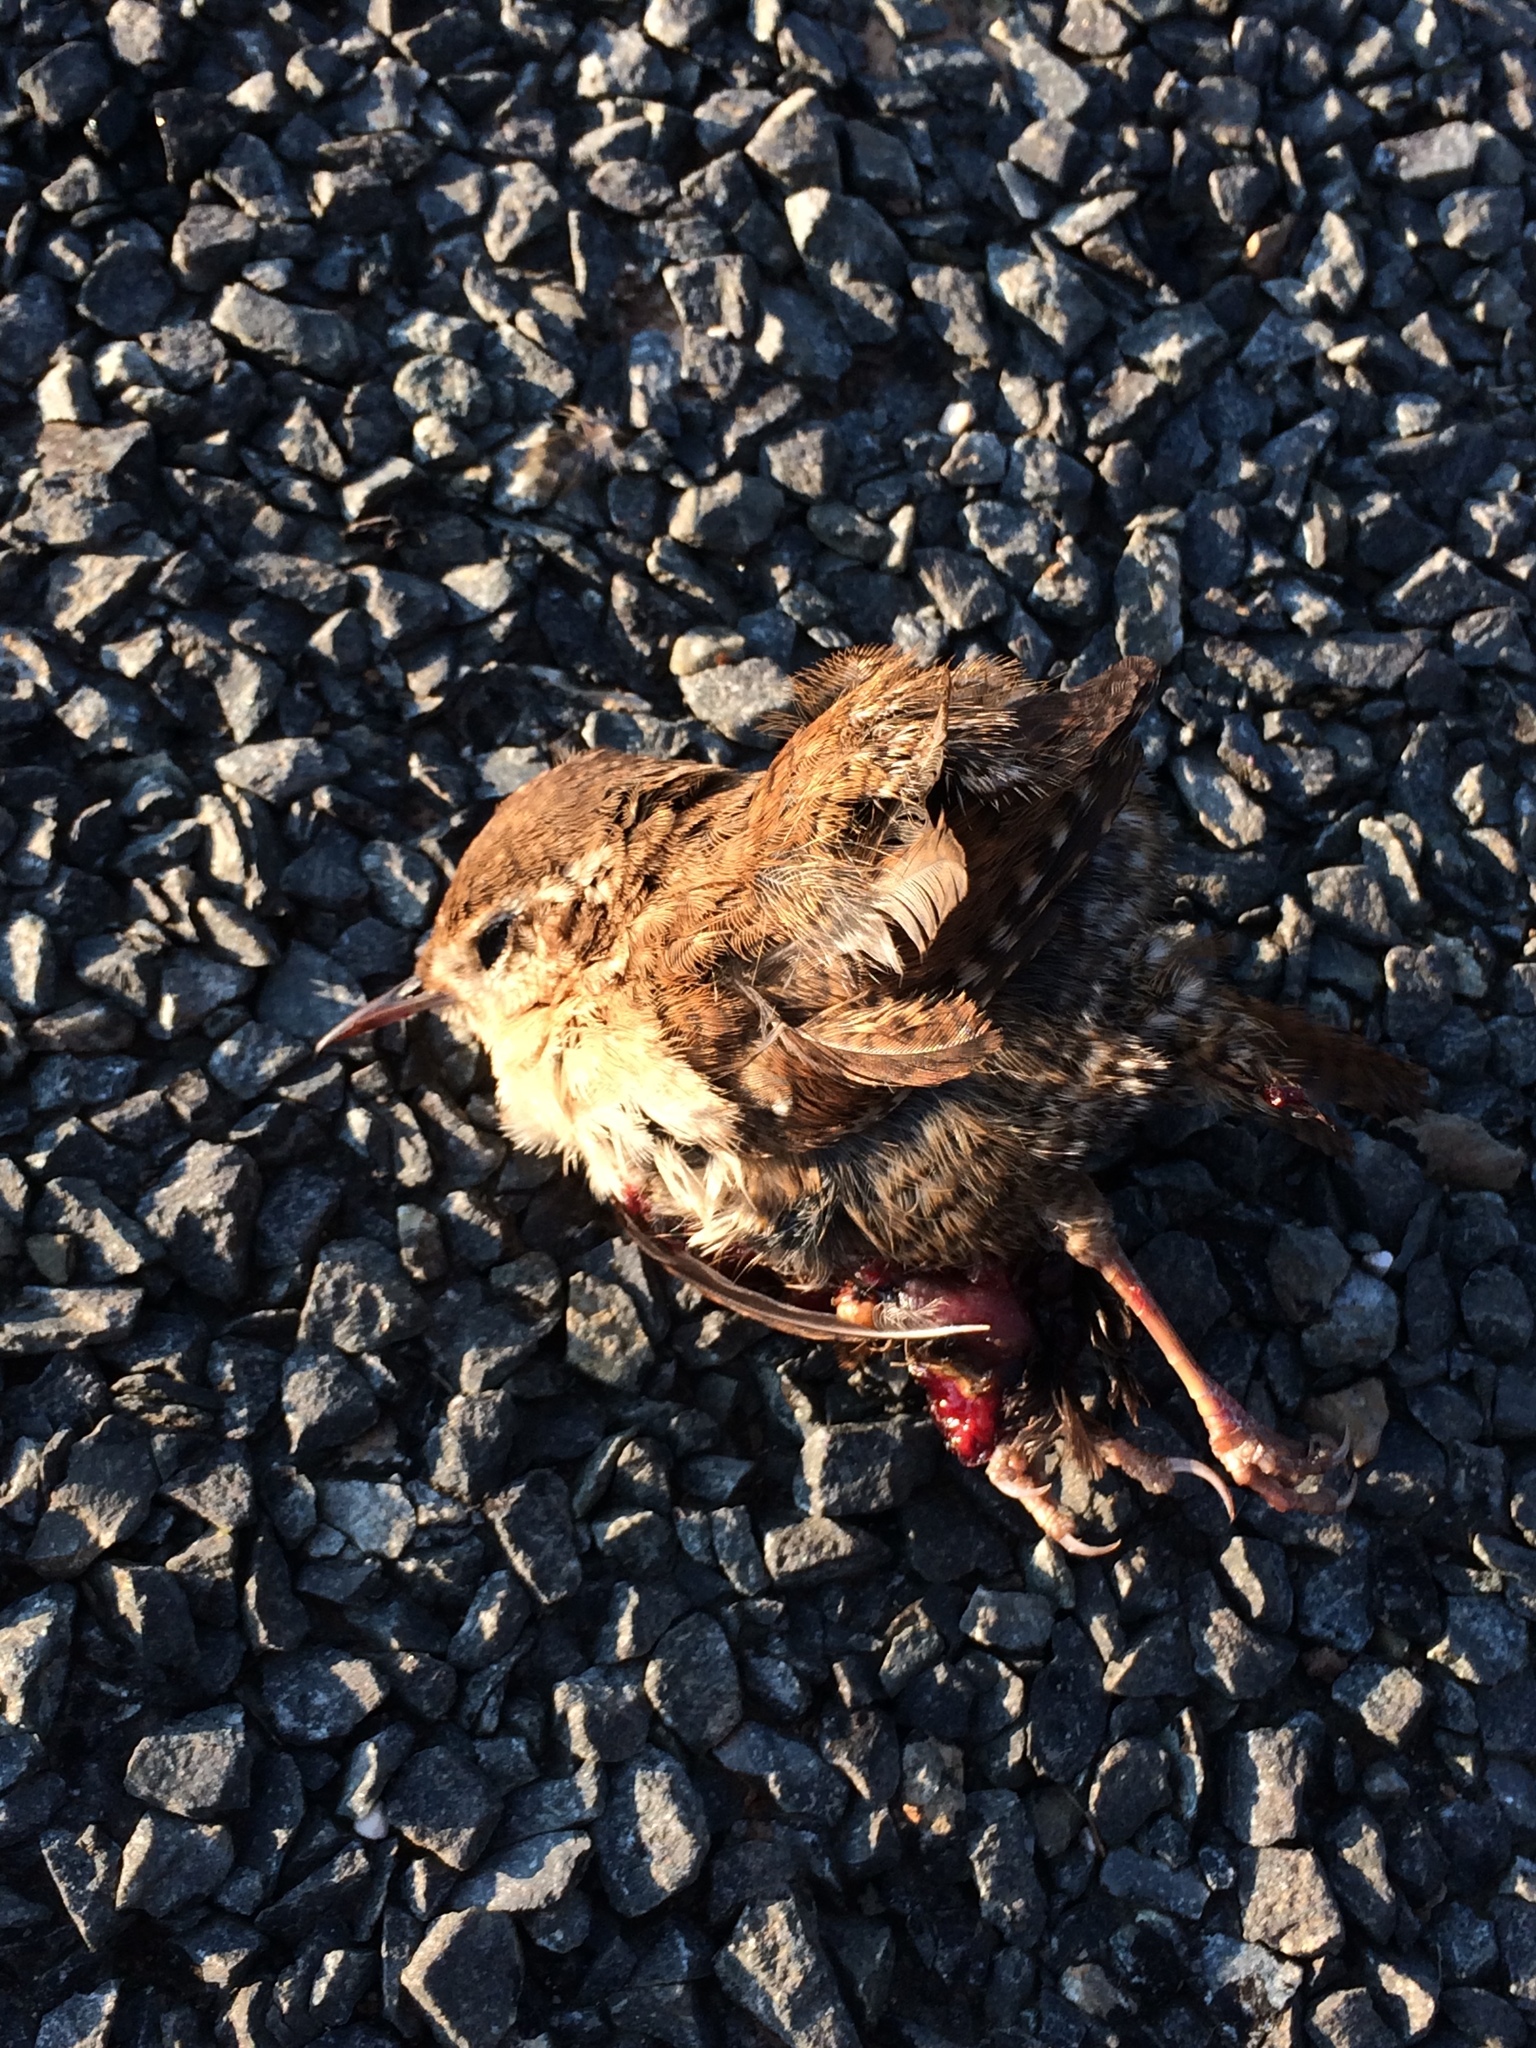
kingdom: Animalia
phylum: Chordata
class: Aves
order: Passeriformes
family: Troglodytidae
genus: Troglodytes
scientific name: Troglodytes troglodytes
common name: Eurasian wren
